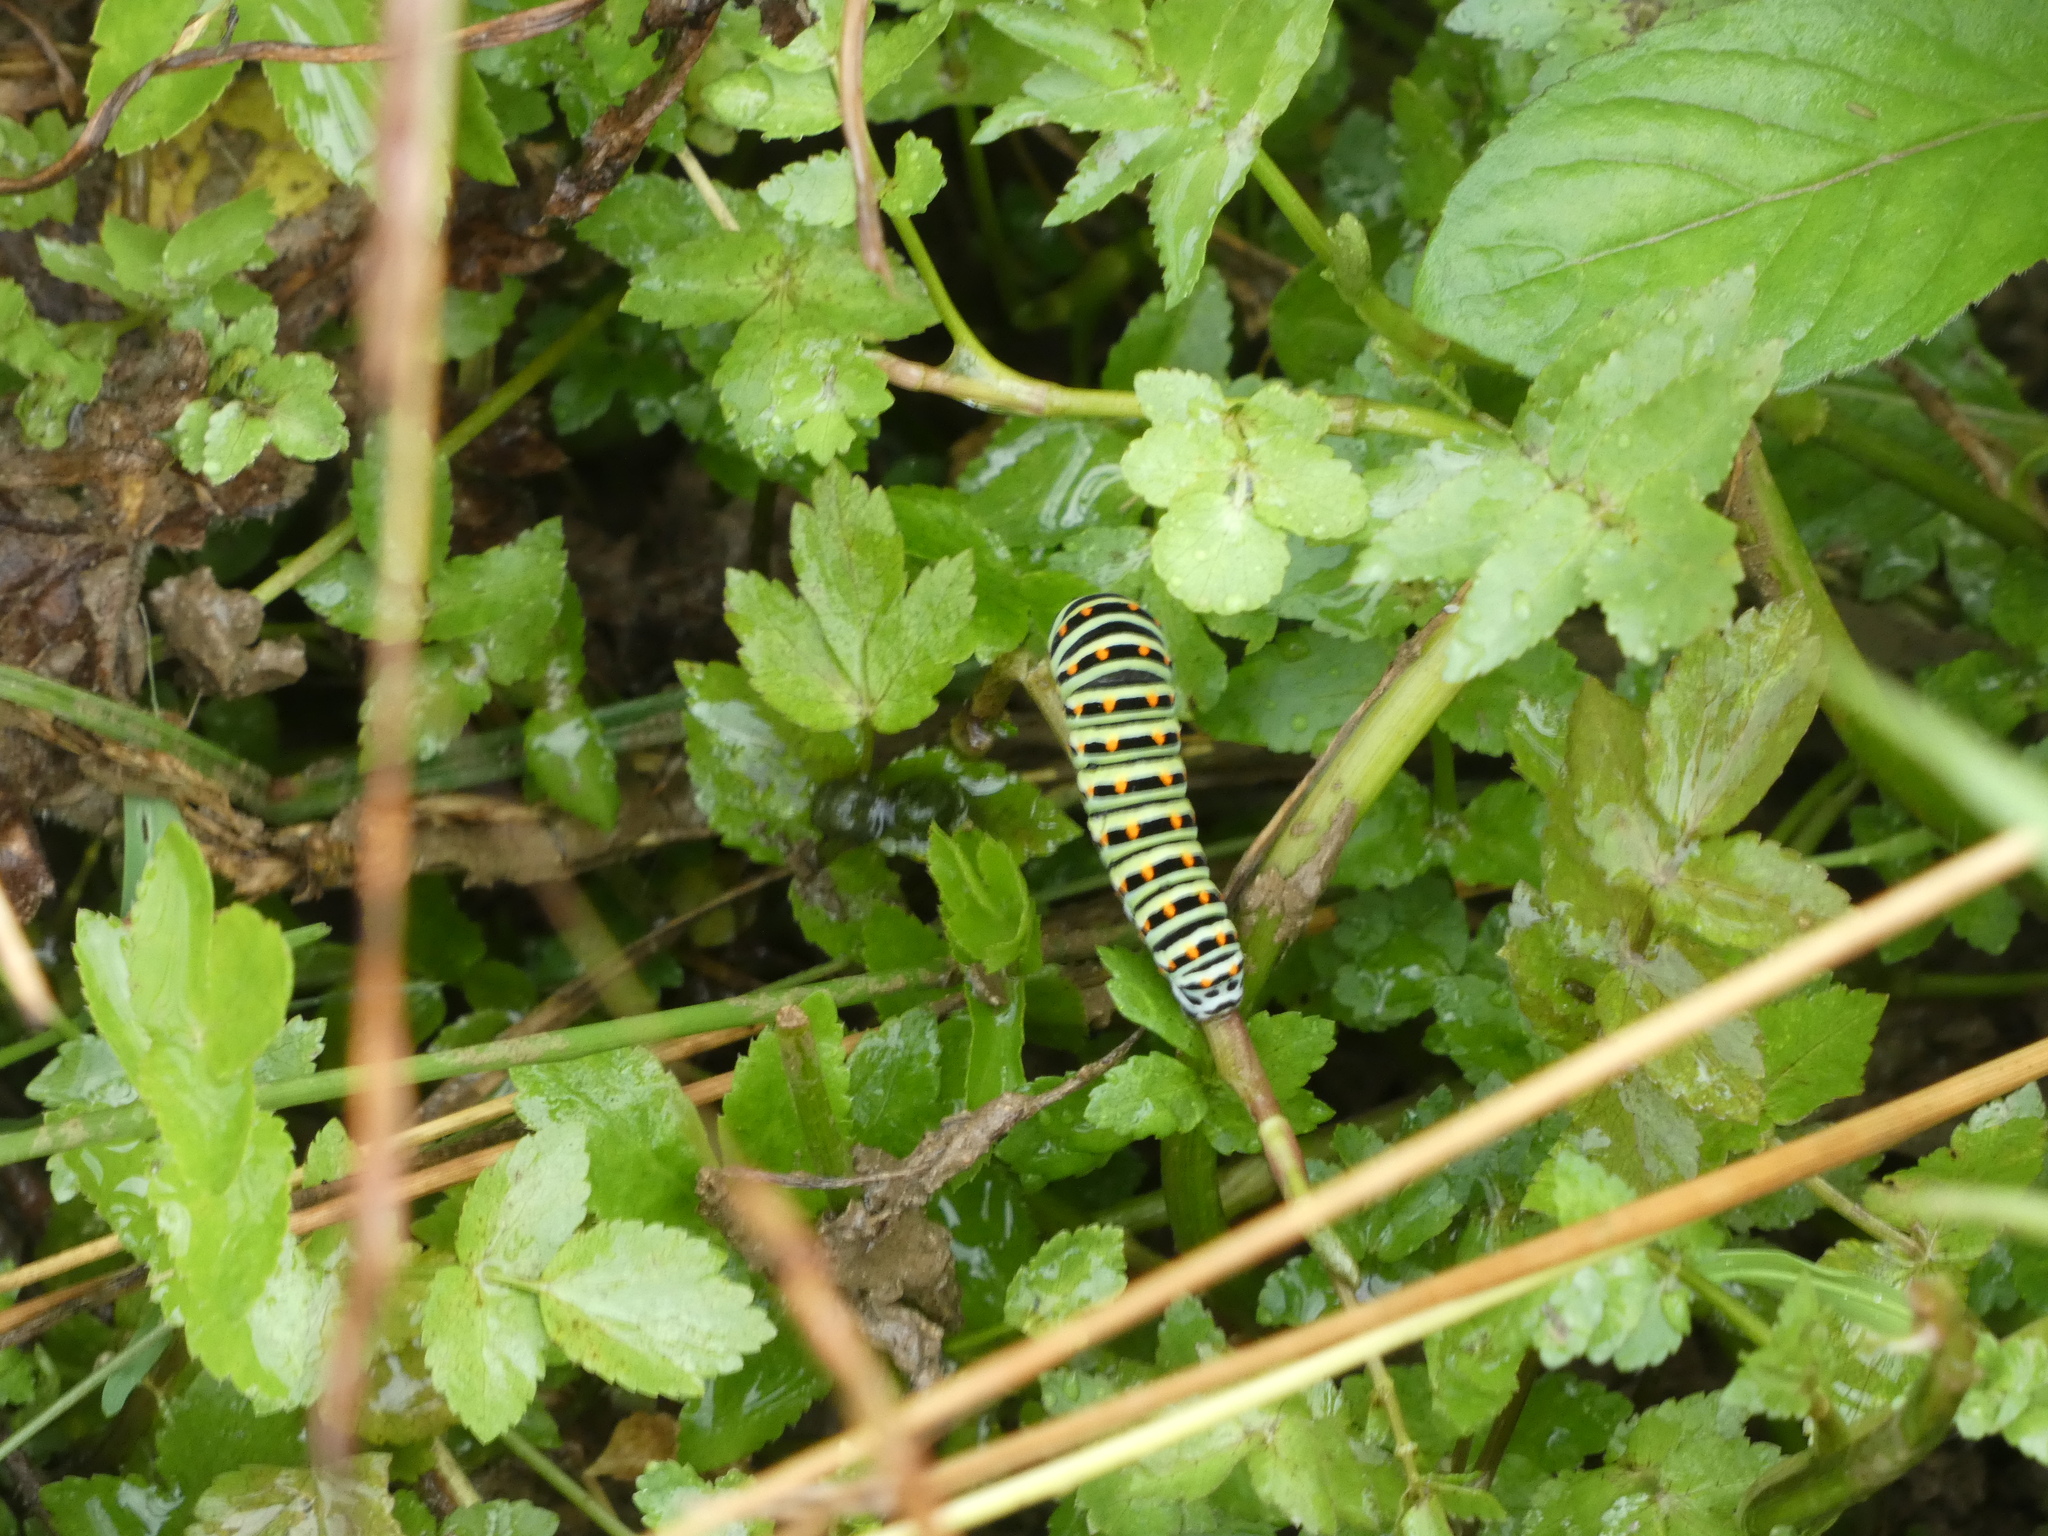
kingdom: Animalia
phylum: Arthropoda
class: Insecta
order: Lepidoptera
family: Papilionidae
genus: Papilio
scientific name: Papilio machaon
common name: Swallowtail
